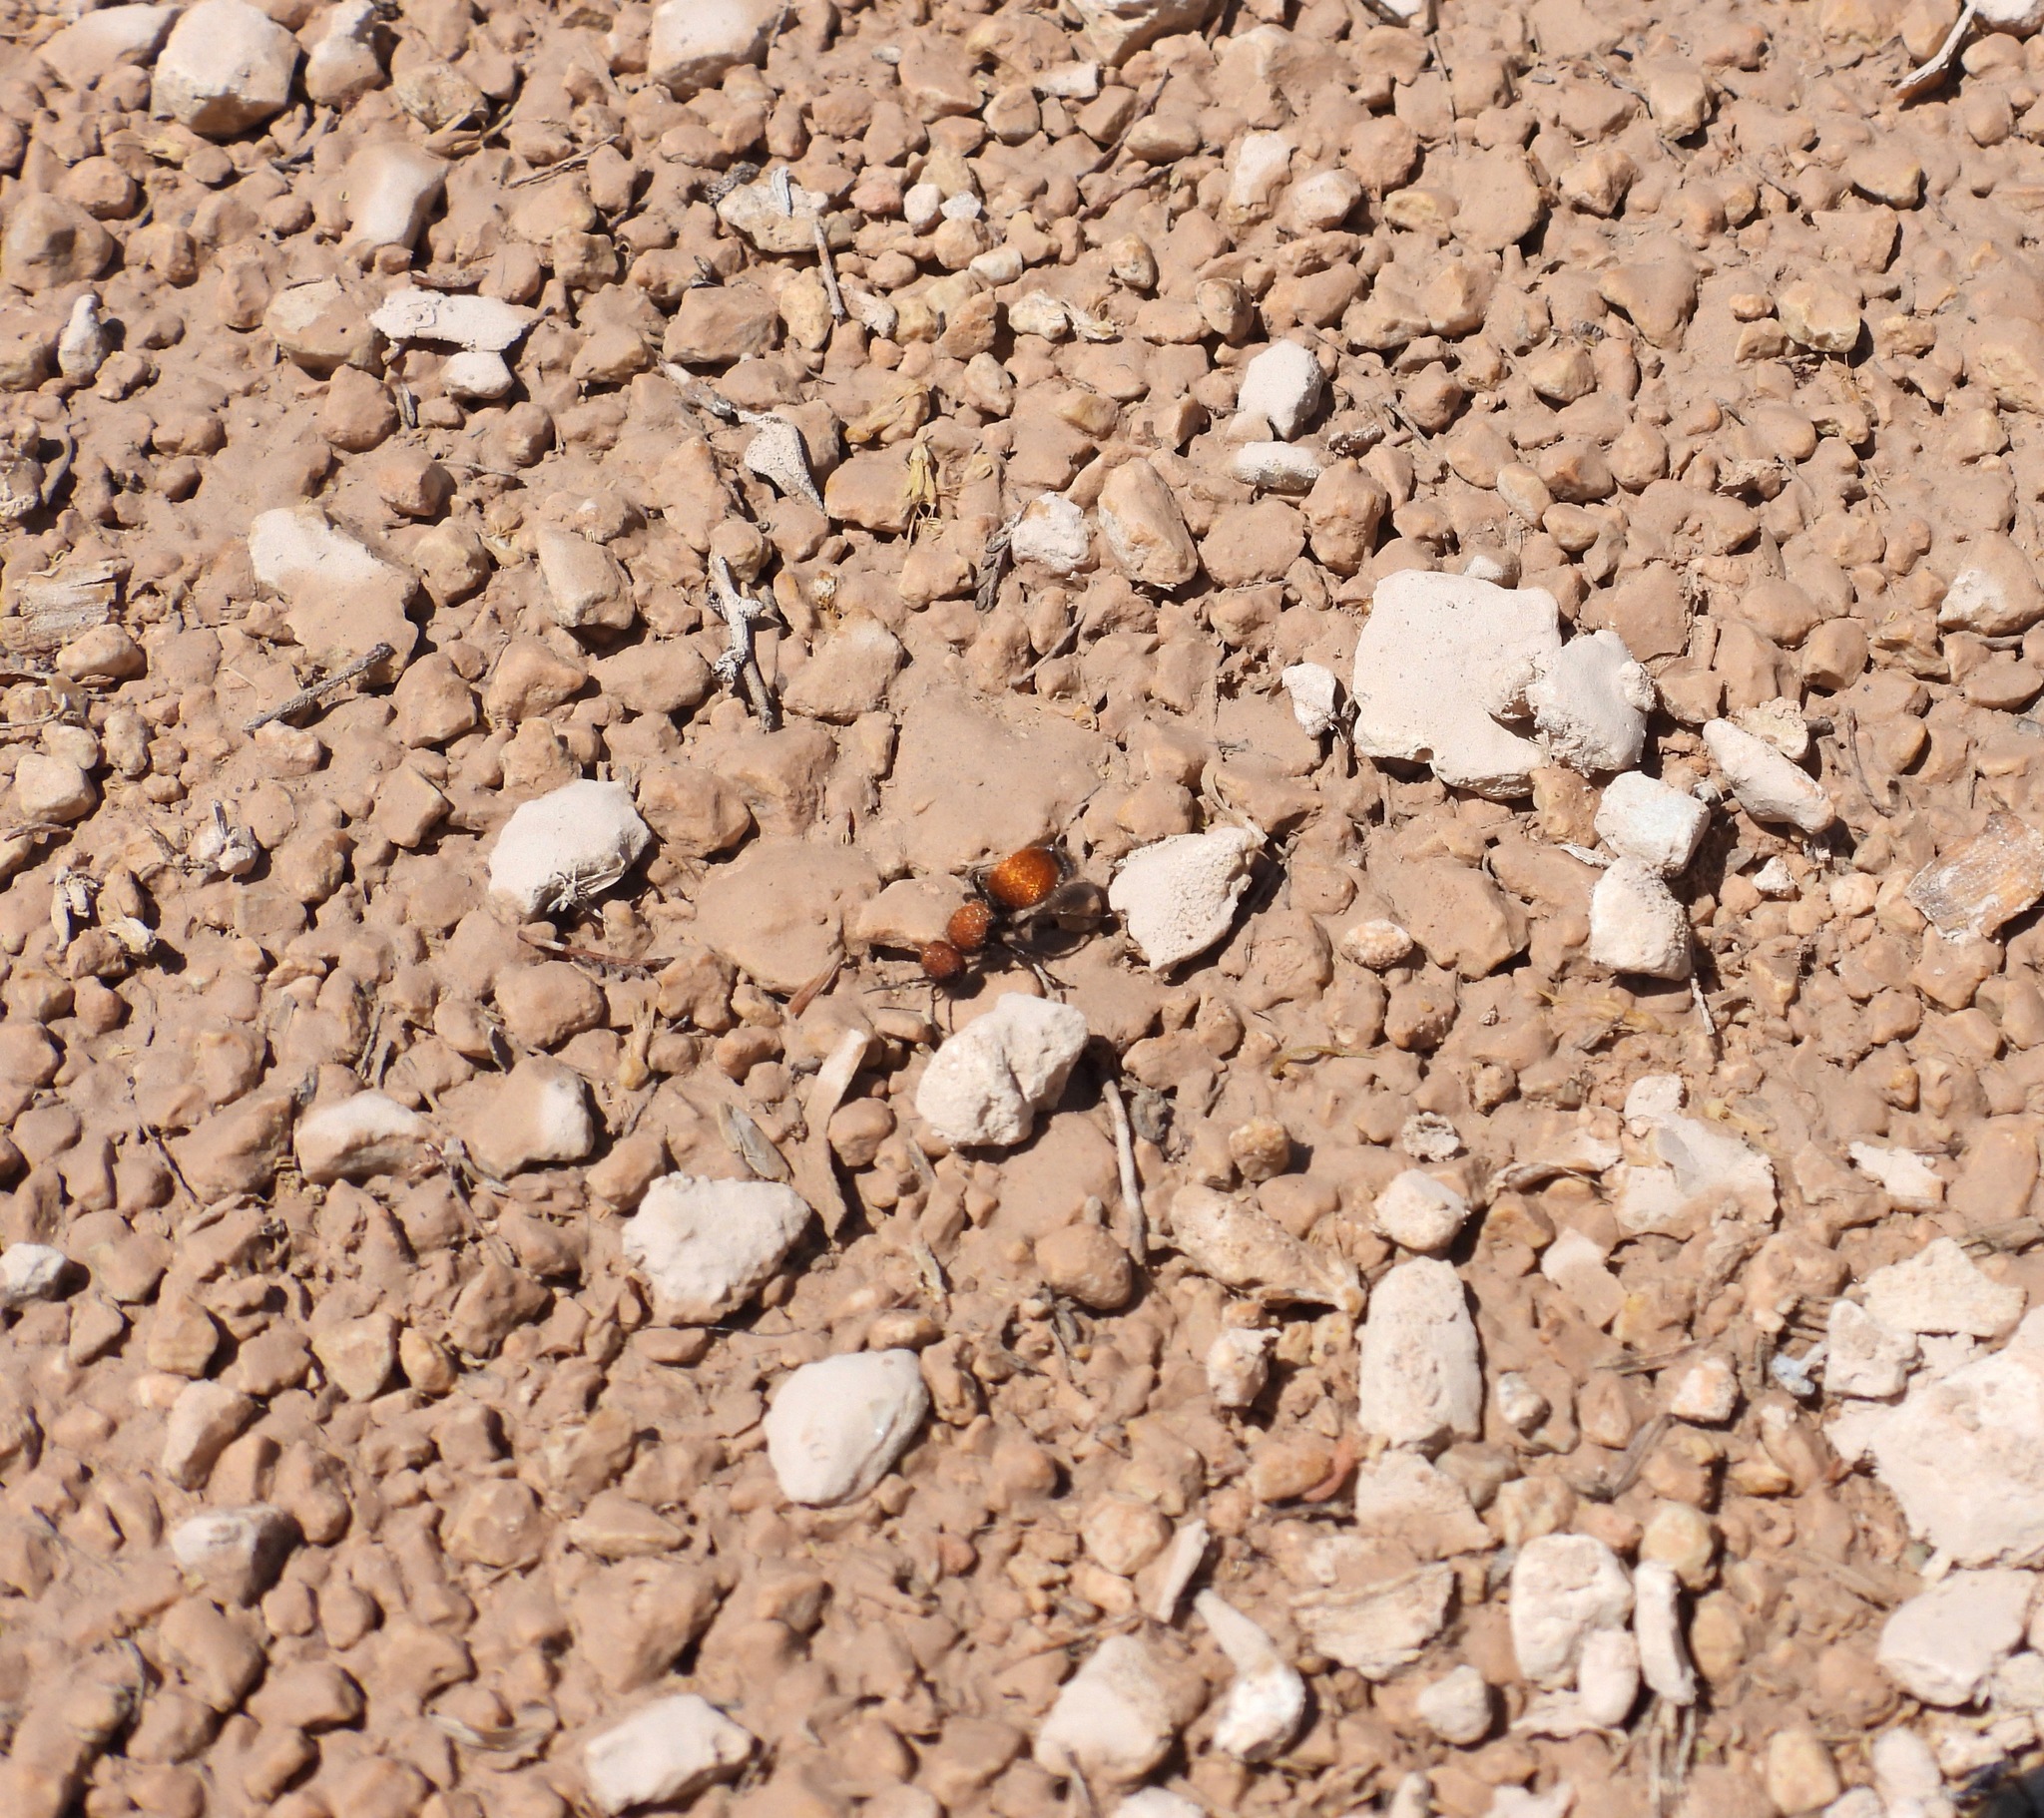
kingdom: Animalia
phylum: Arthropoda
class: Insecta
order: Hymenoptera
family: Mutillidae
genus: Pseudomethoca
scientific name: Pseudomethoca
